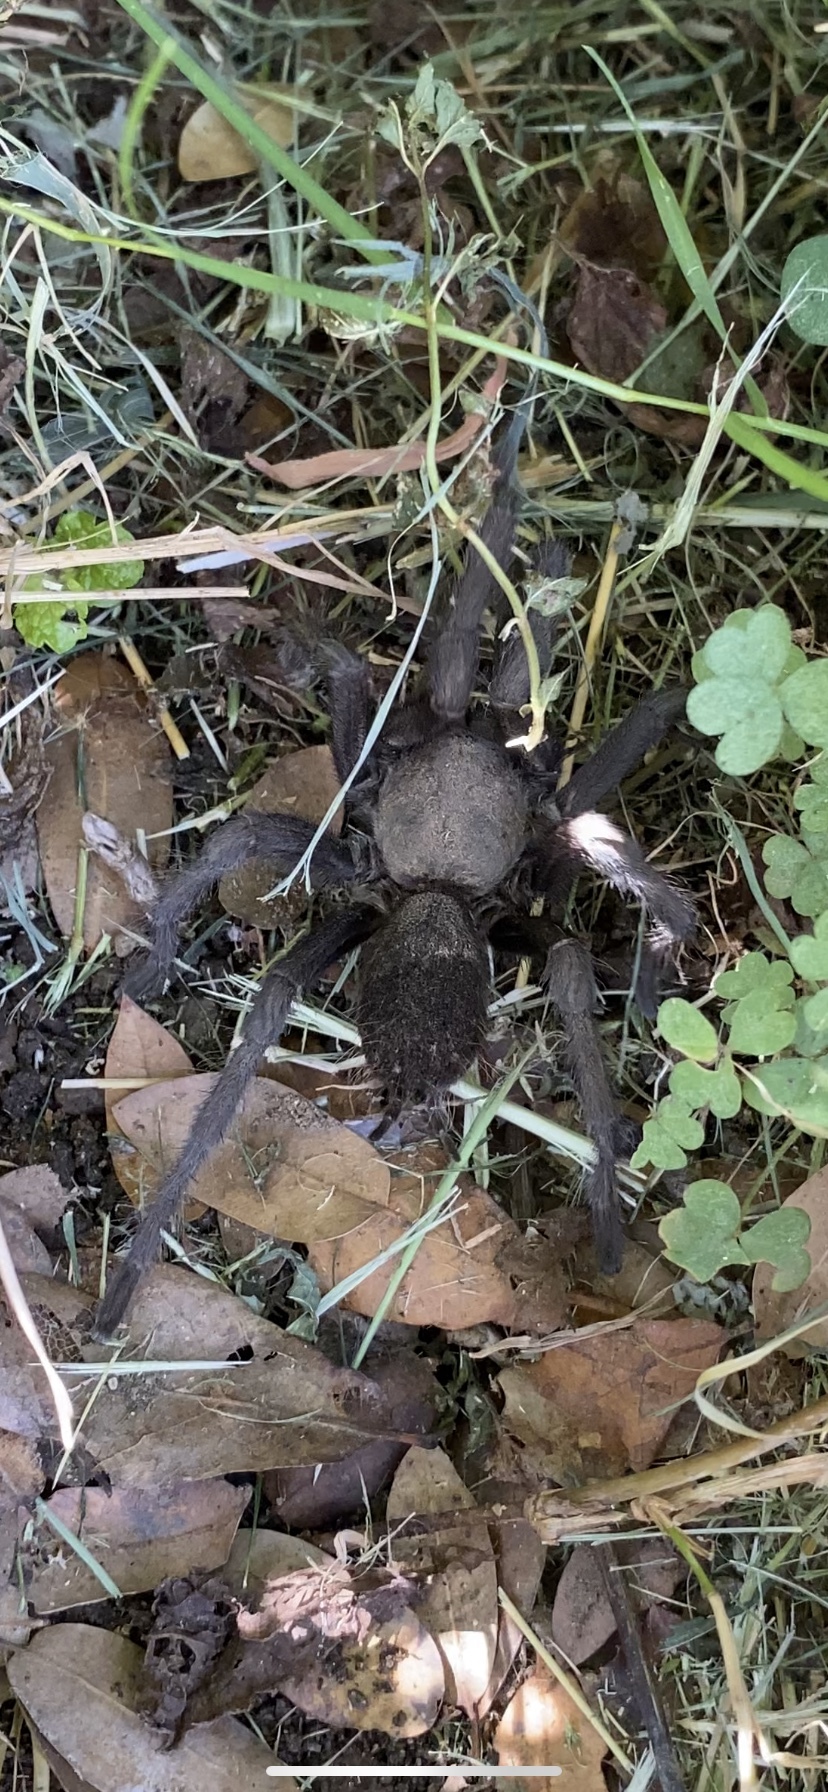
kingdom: Animalia
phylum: Arthropoda
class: Arachnida
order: Araneae
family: Theraphosidae
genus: Aphonopelma
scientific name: Aphonopelma johnnycashi
